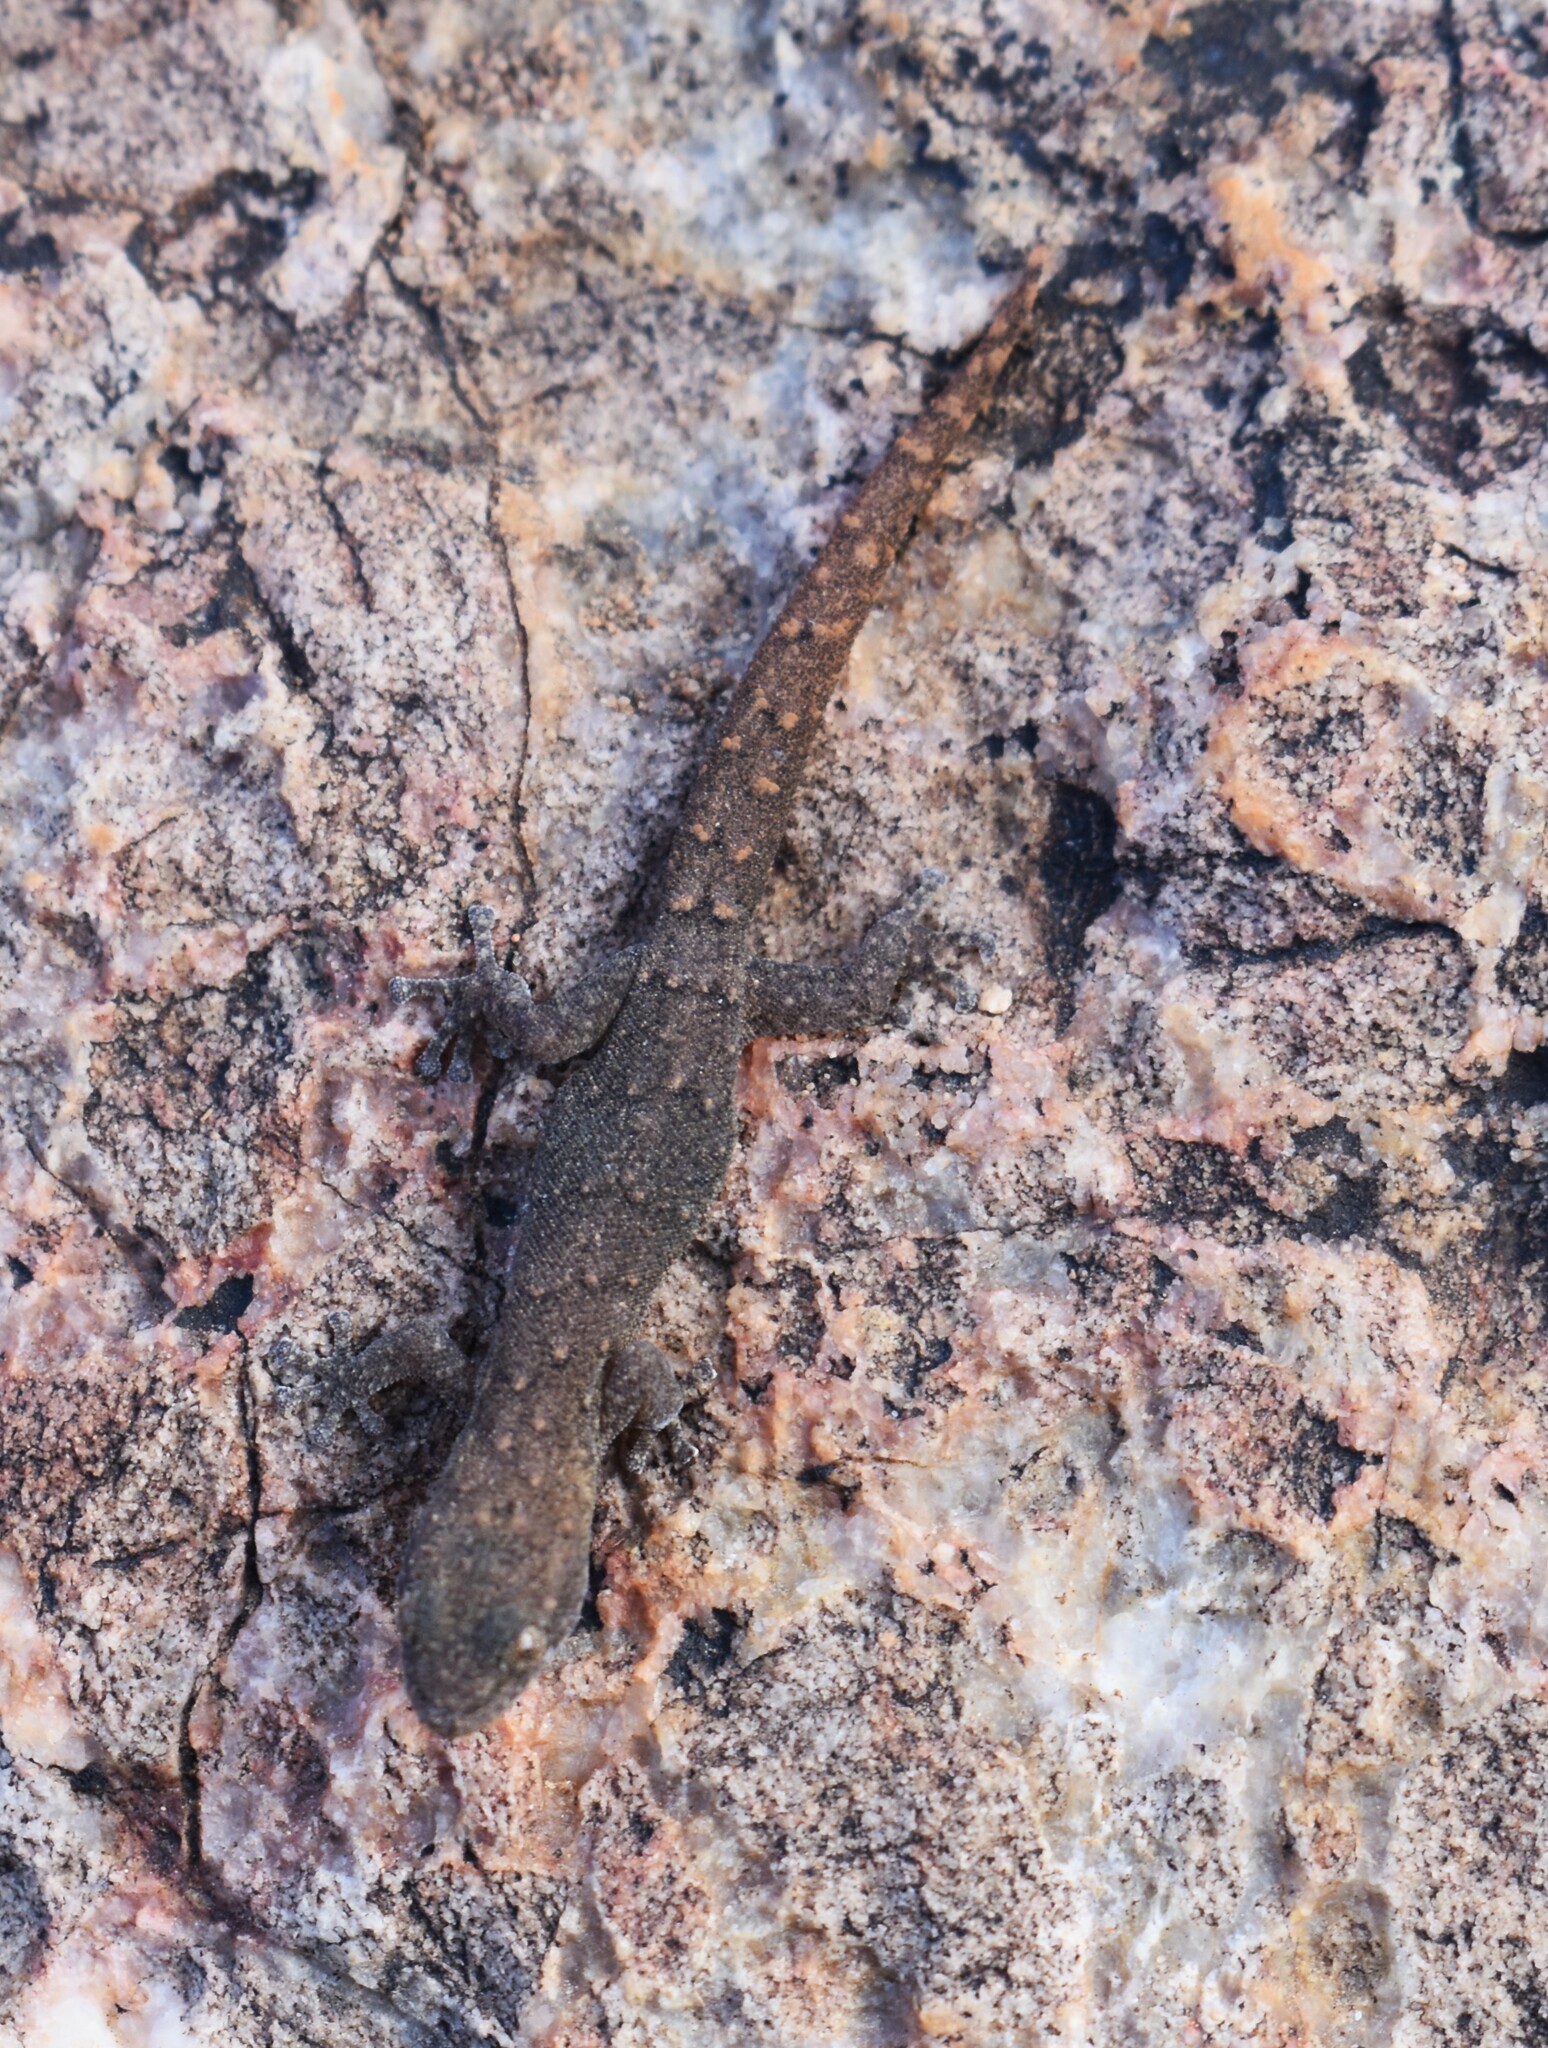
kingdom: Animalia
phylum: Chordata
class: Squamata
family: Gekkonidae
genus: Goggia
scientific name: Goggia hewitti
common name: Hewitt’s dwarf leaf-toed gecko
